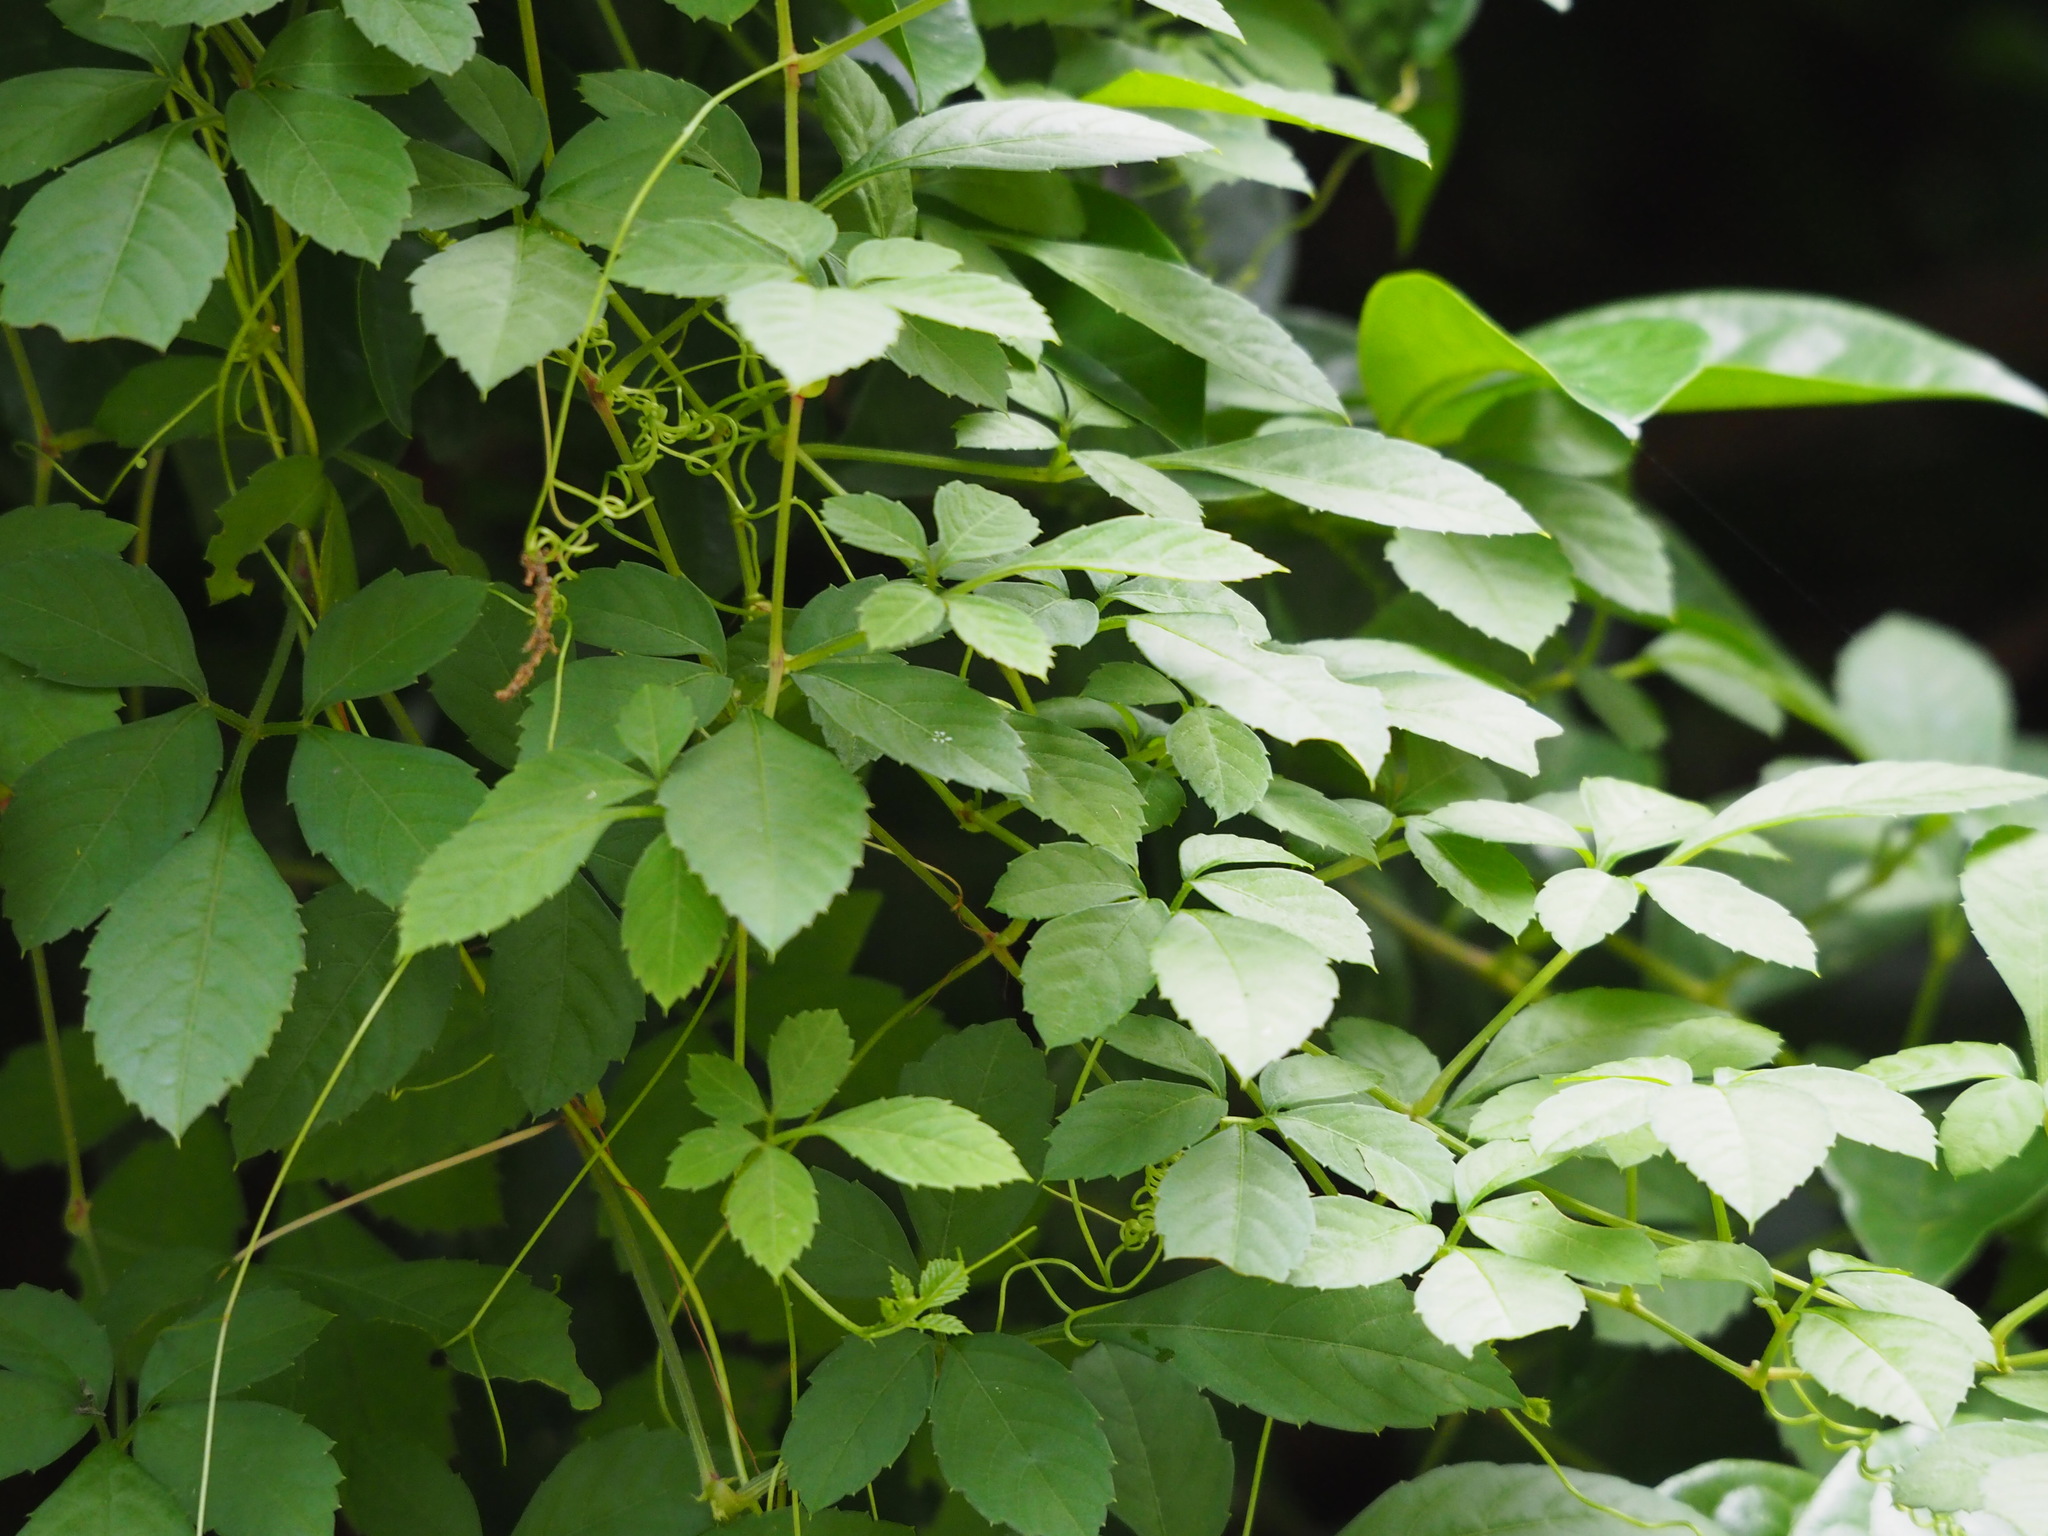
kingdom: Plantae
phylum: Tracheophyta
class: Magnoliopsida
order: Vitales
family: Vitaceae
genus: Causonis
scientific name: Causonis japonica
